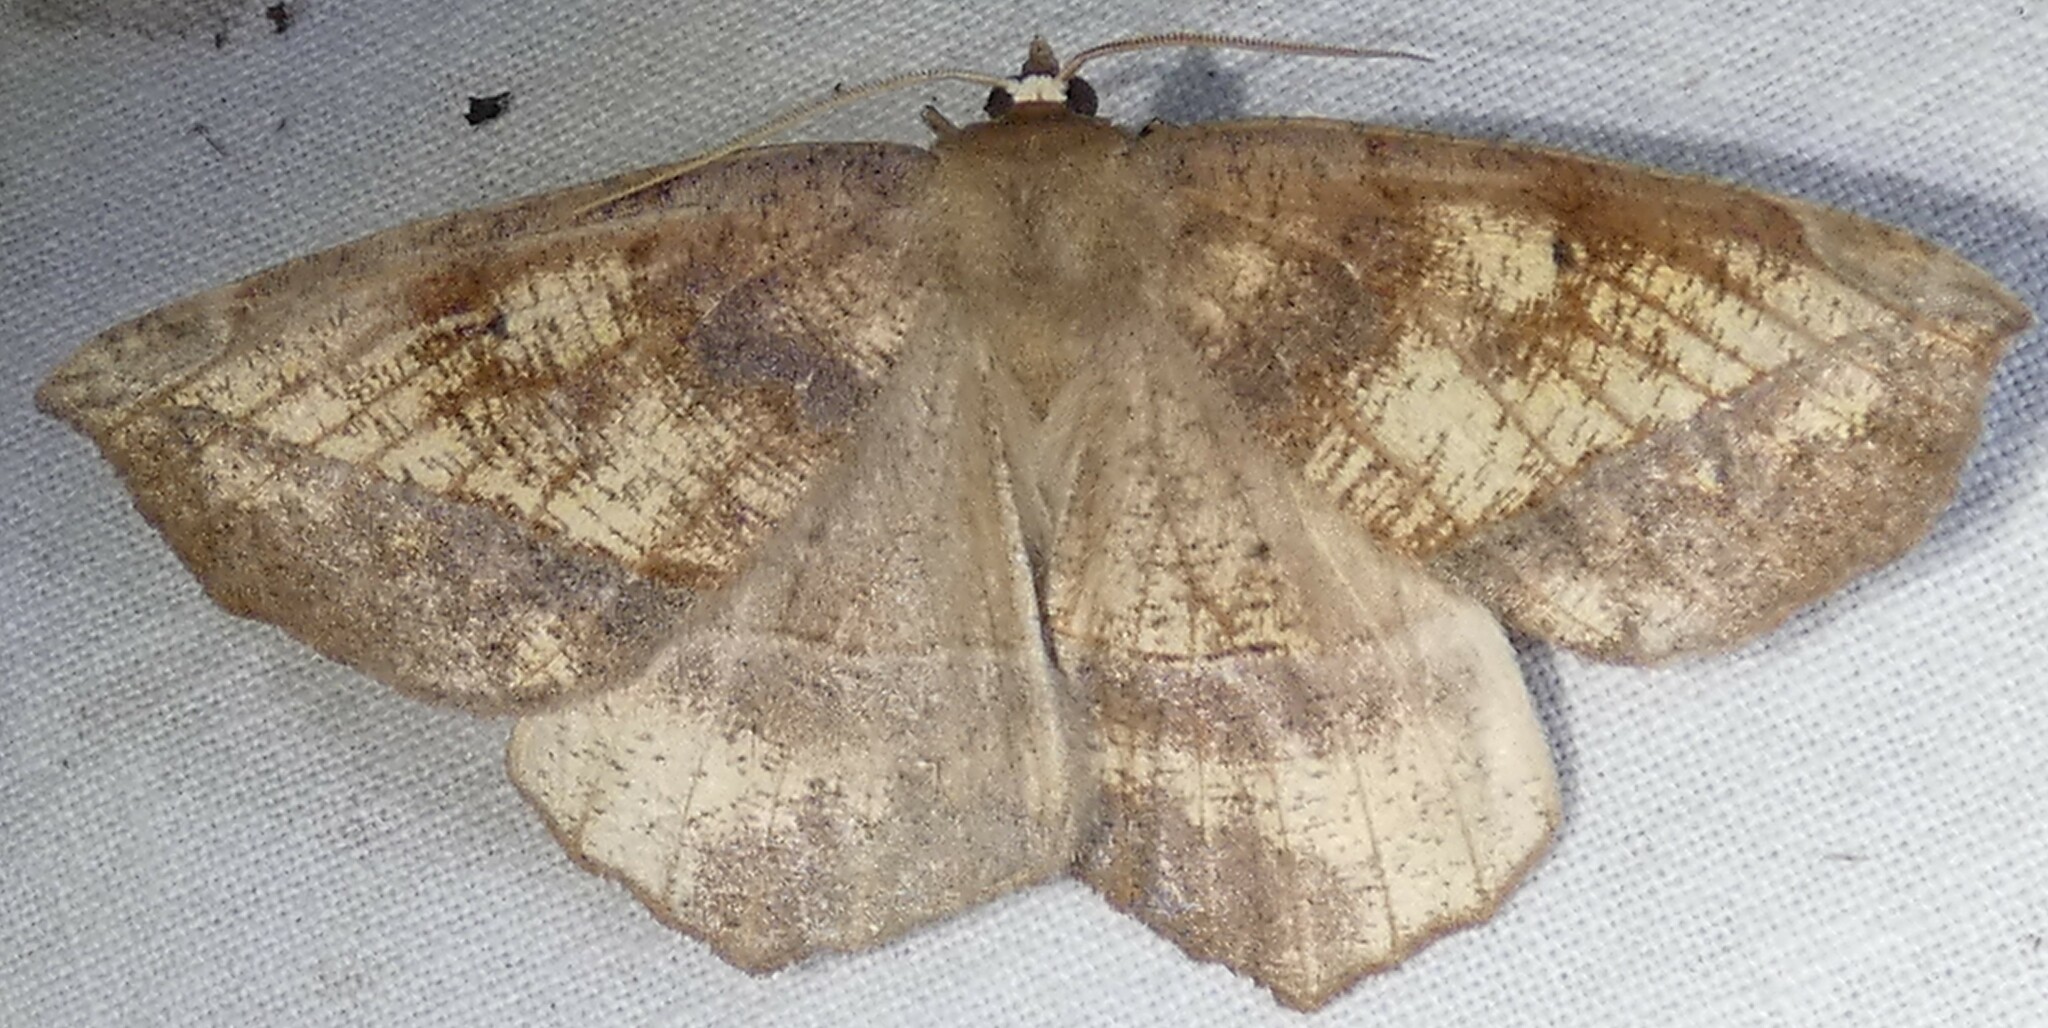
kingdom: Animalia
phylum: Arthropoda
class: Insecta
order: Lepidoptera
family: Geometridae
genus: Eutrapela
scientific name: Eutrapela clemataria
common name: Curved-toothed geometer
